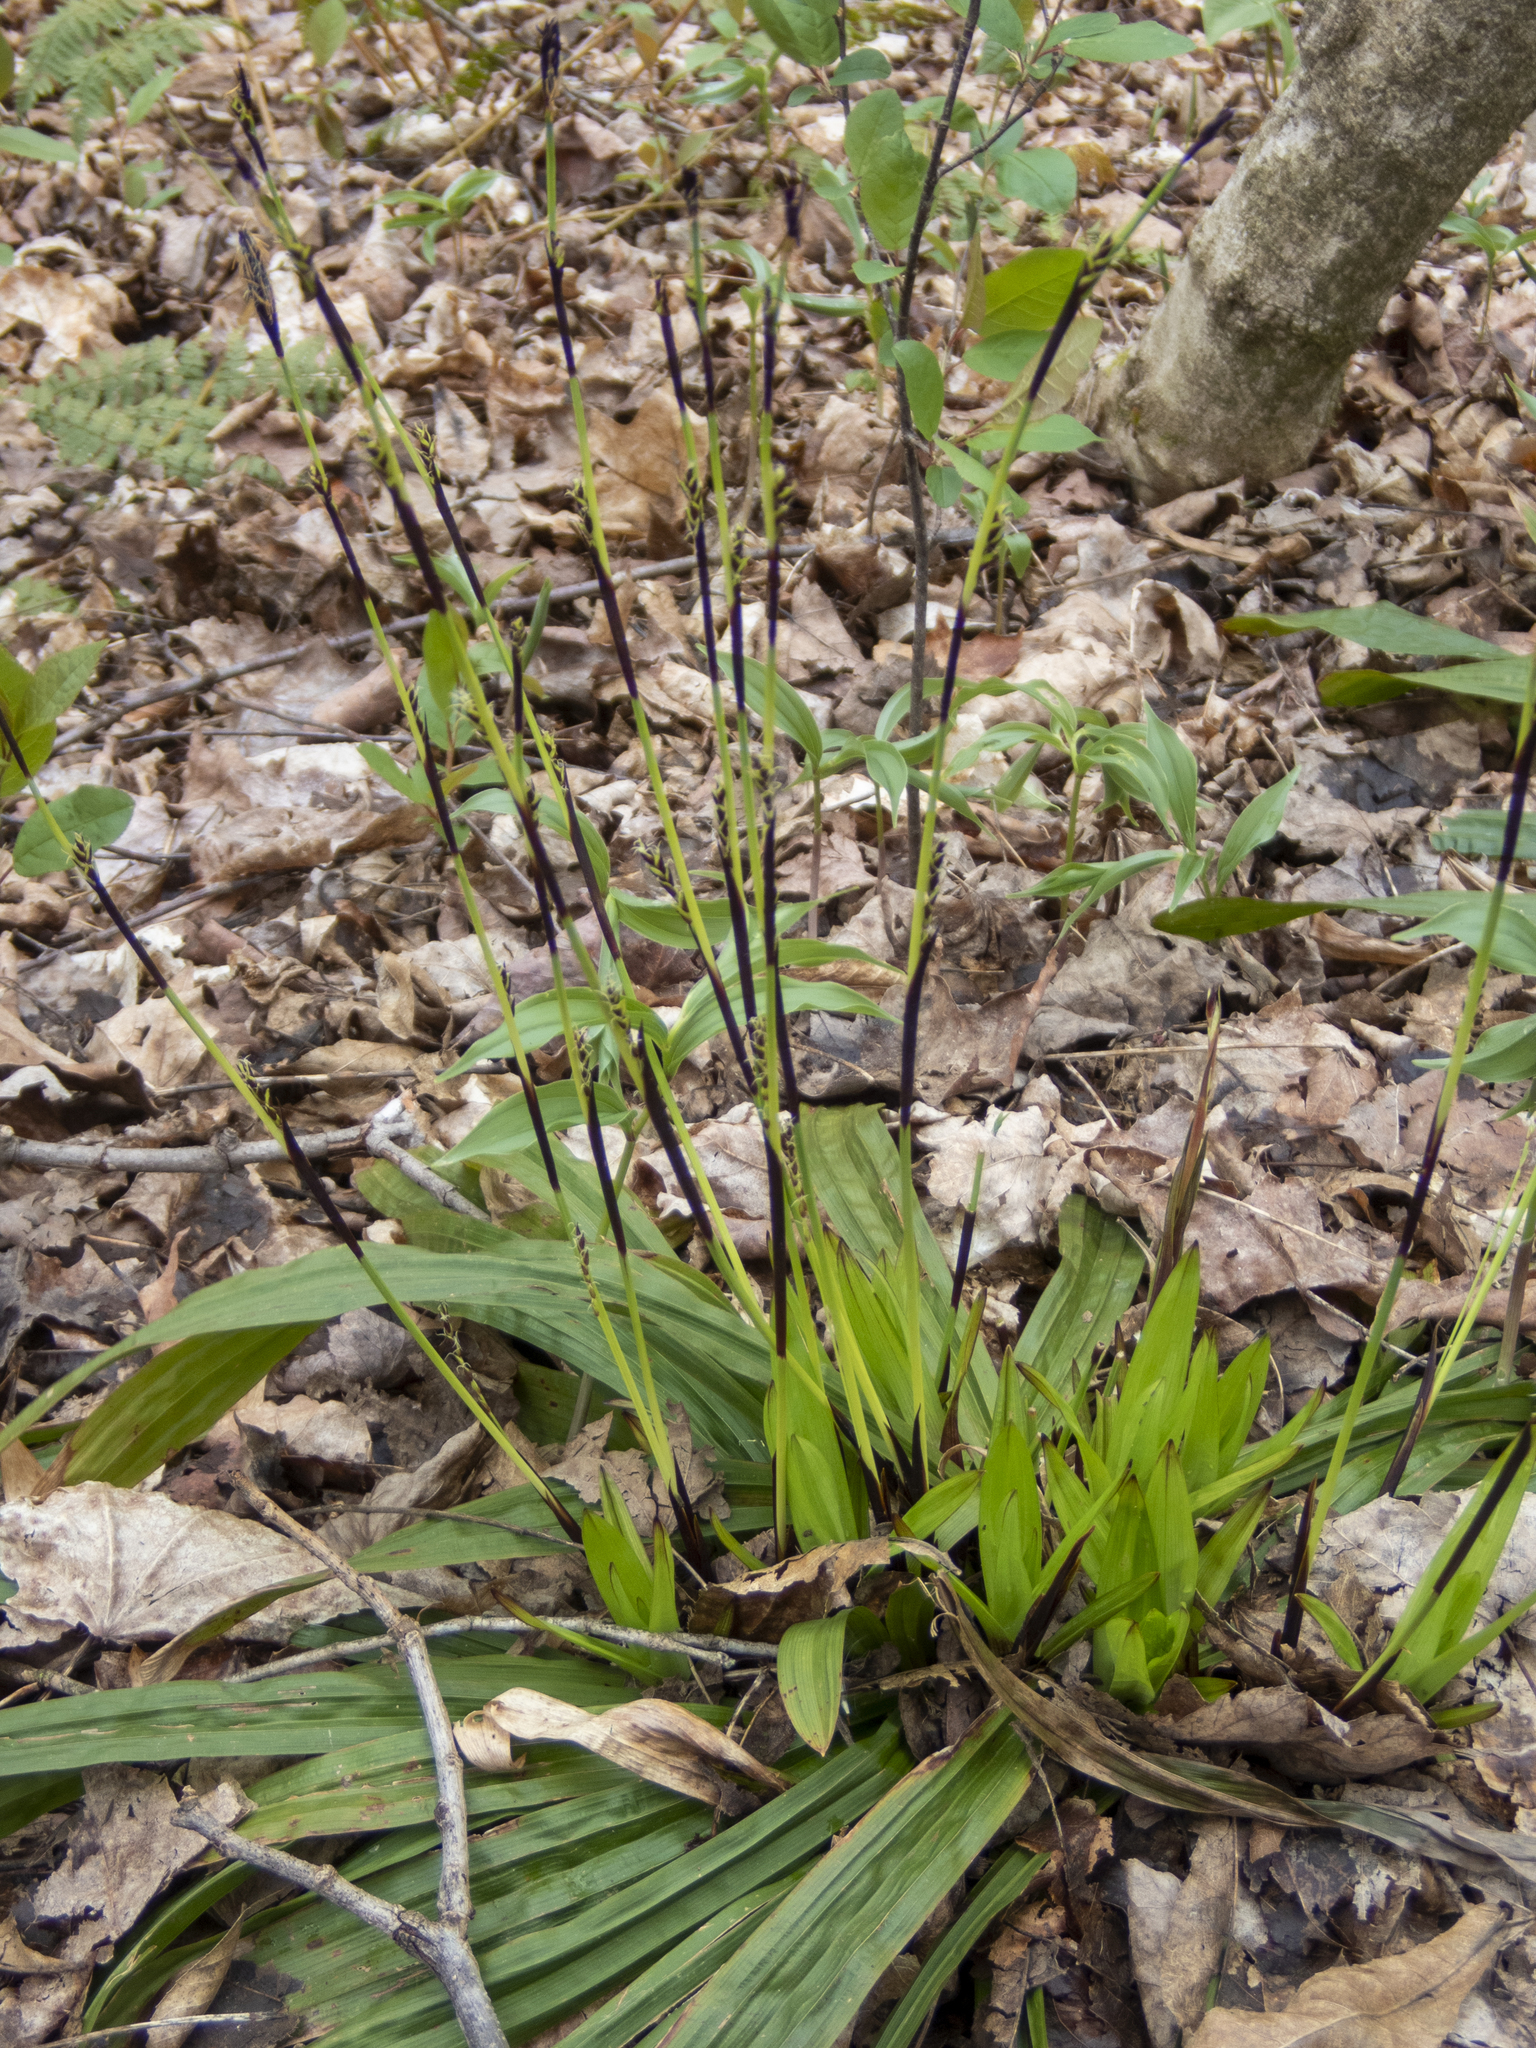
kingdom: Plantae
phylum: Tracheophyta
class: Liliopsida
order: Poales
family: Cyperaceae
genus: Carex
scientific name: Carex plantaginea
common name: Plantain-leaved sedge
